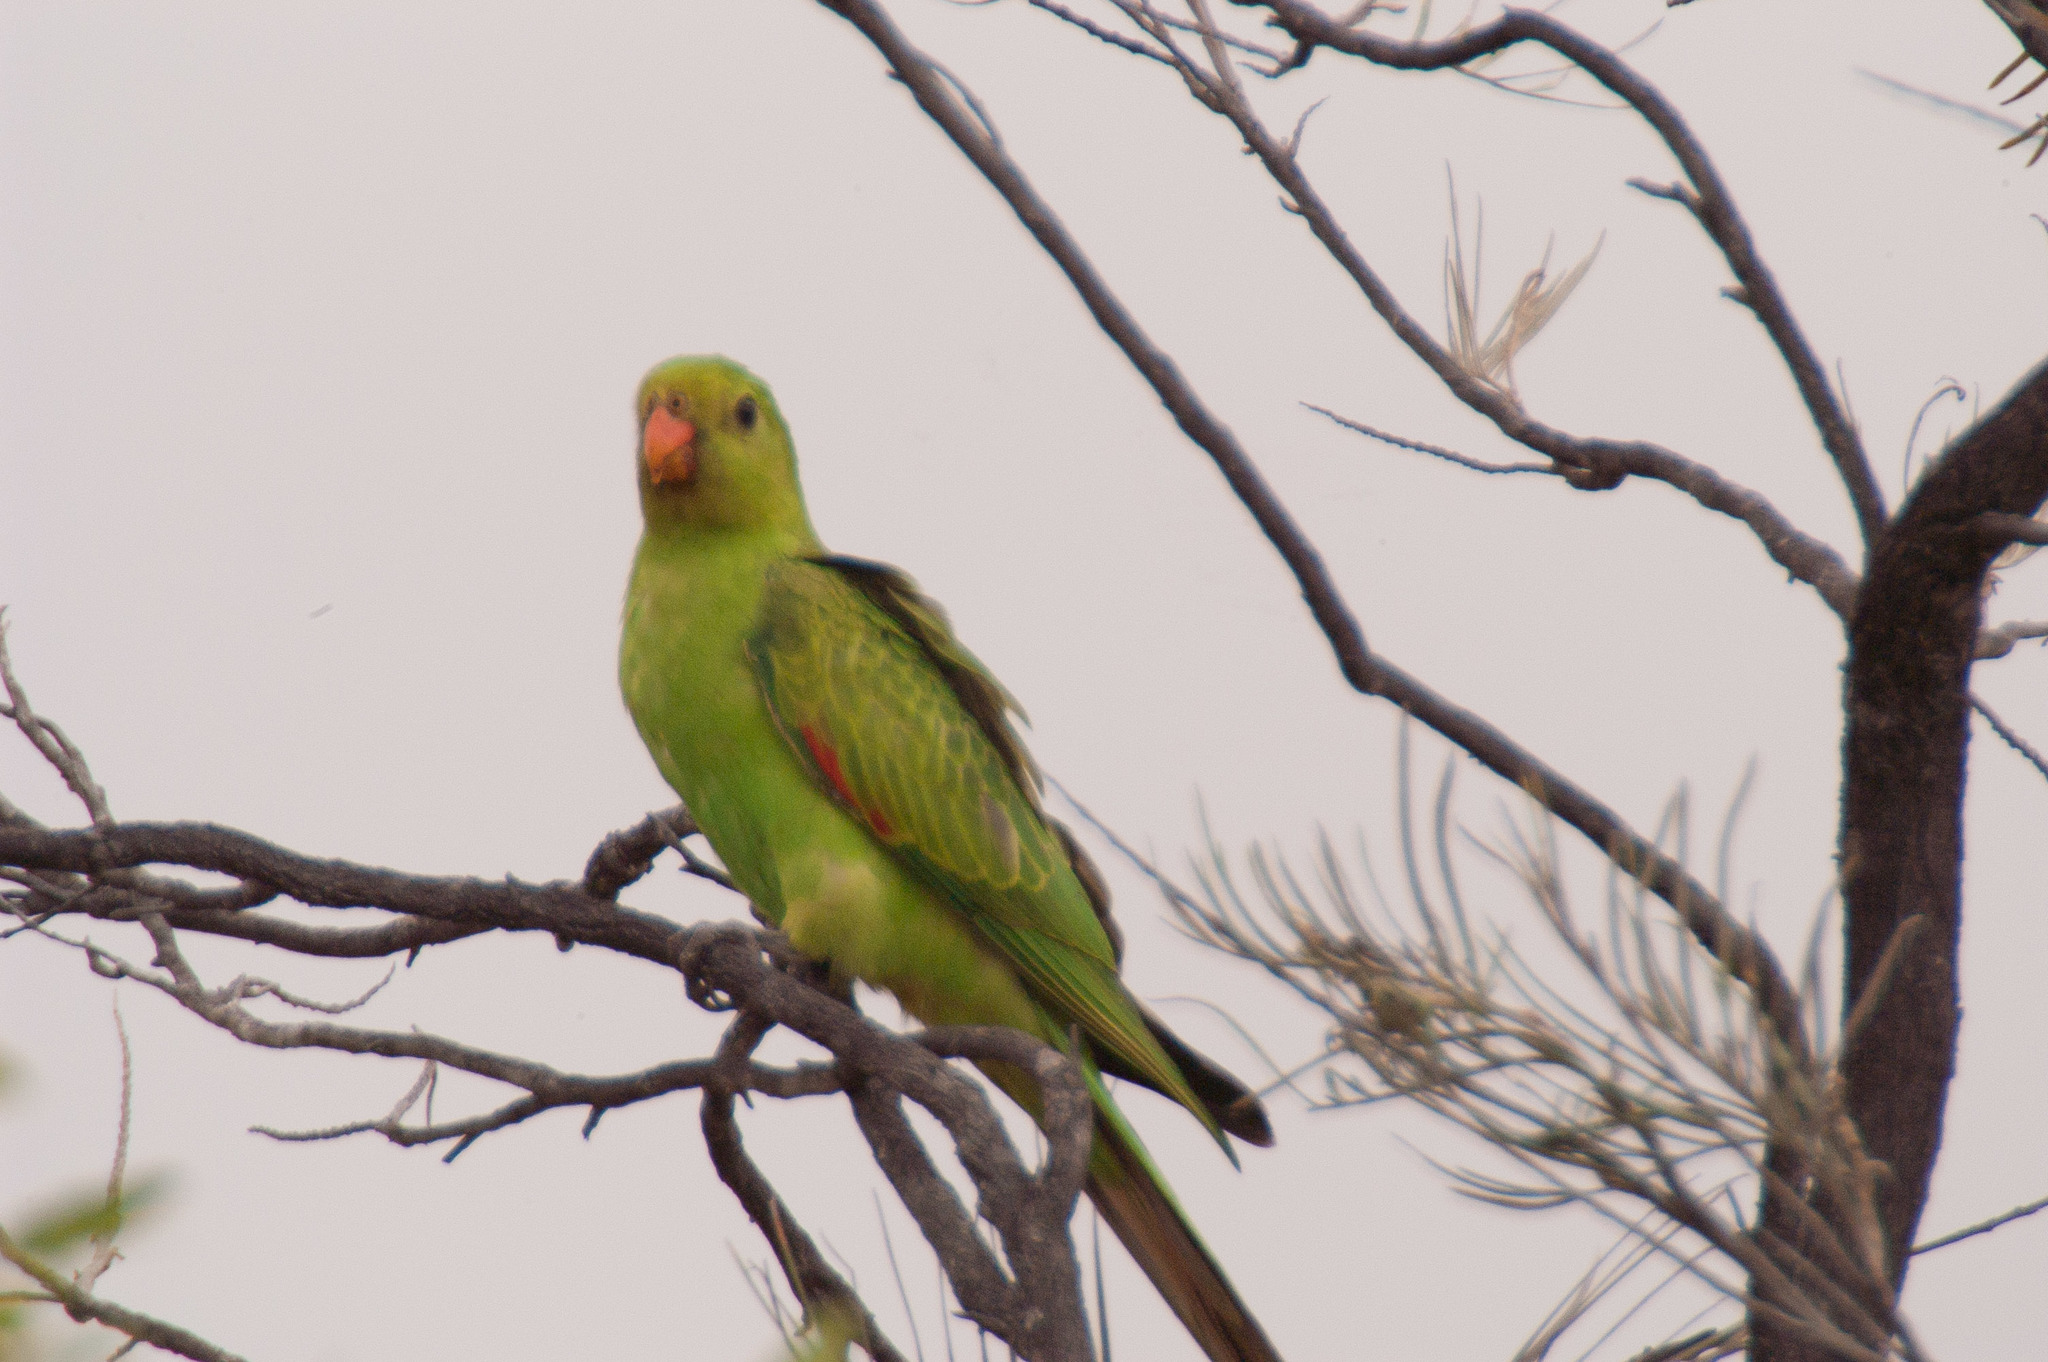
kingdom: Animalia
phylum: Chordata
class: Aves
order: Psittaciformes
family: Psittacidae
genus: Aprosmictus
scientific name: Aprosmictus erythropterus
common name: Red-winged parrot
